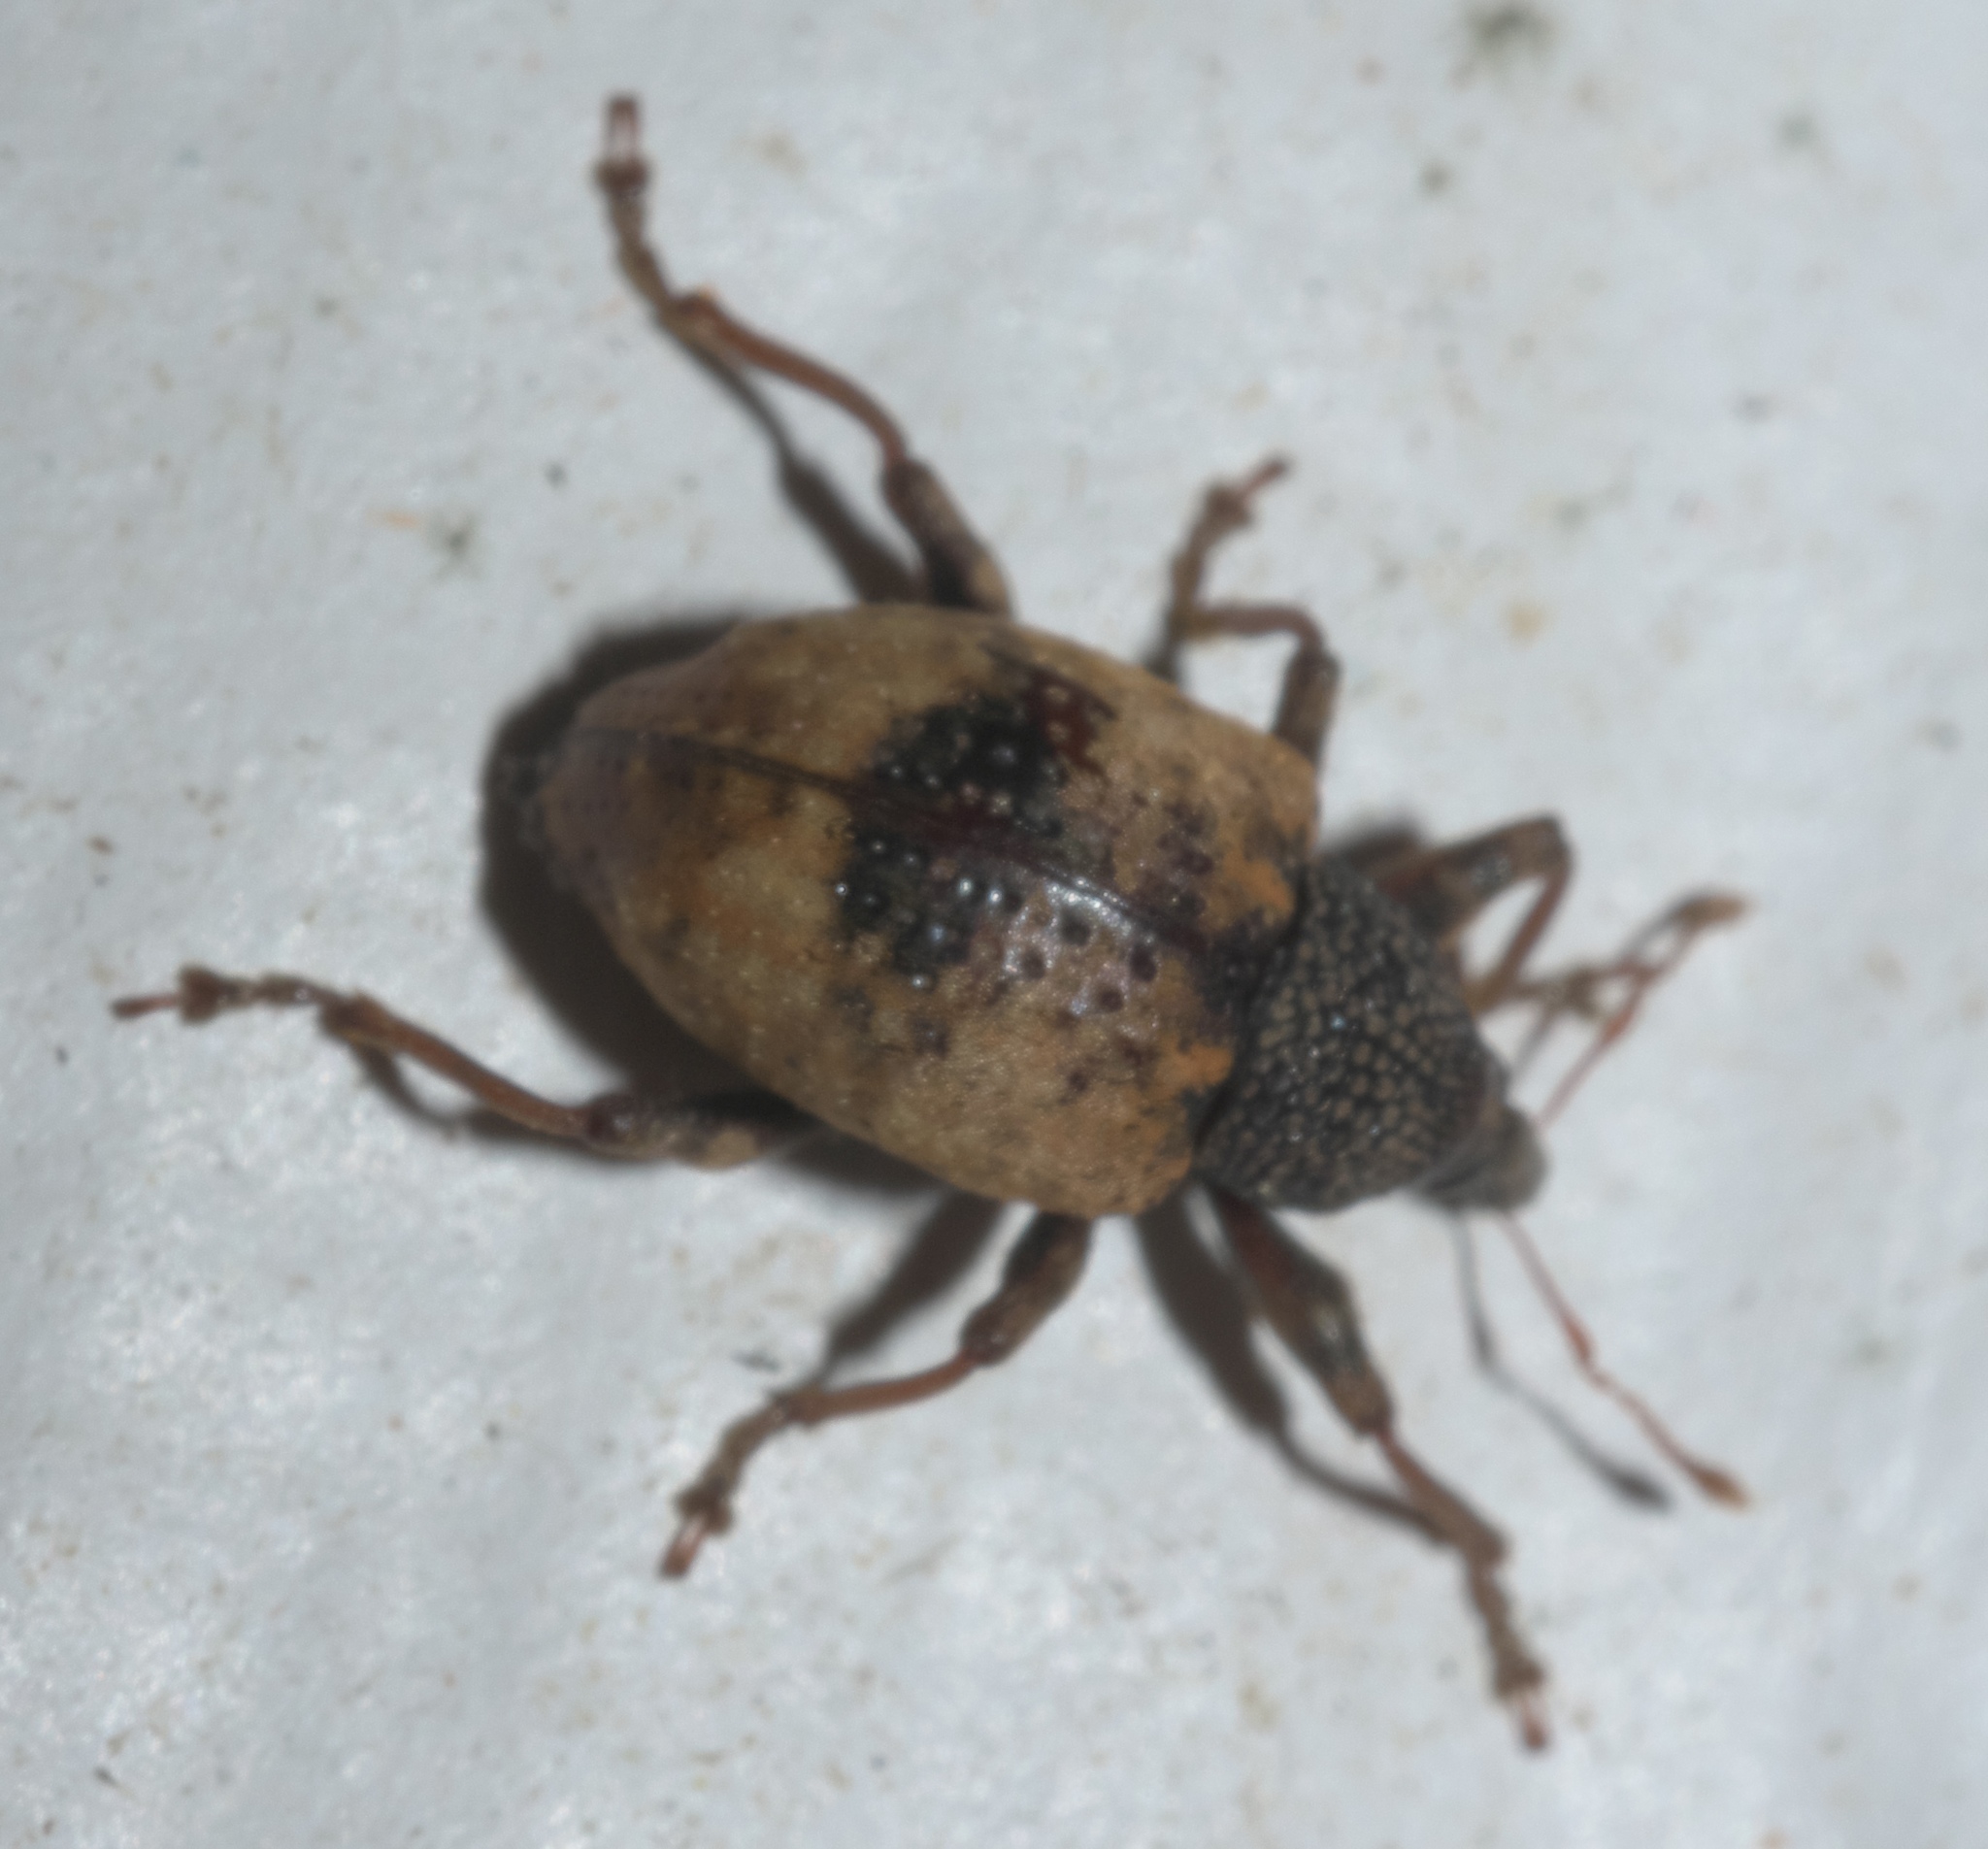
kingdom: Animalia
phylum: Arthropoda
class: Insecta
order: Coleoptera
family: Curculionidae
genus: Conotrachelus
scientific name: Conotrachelus fissunguis
